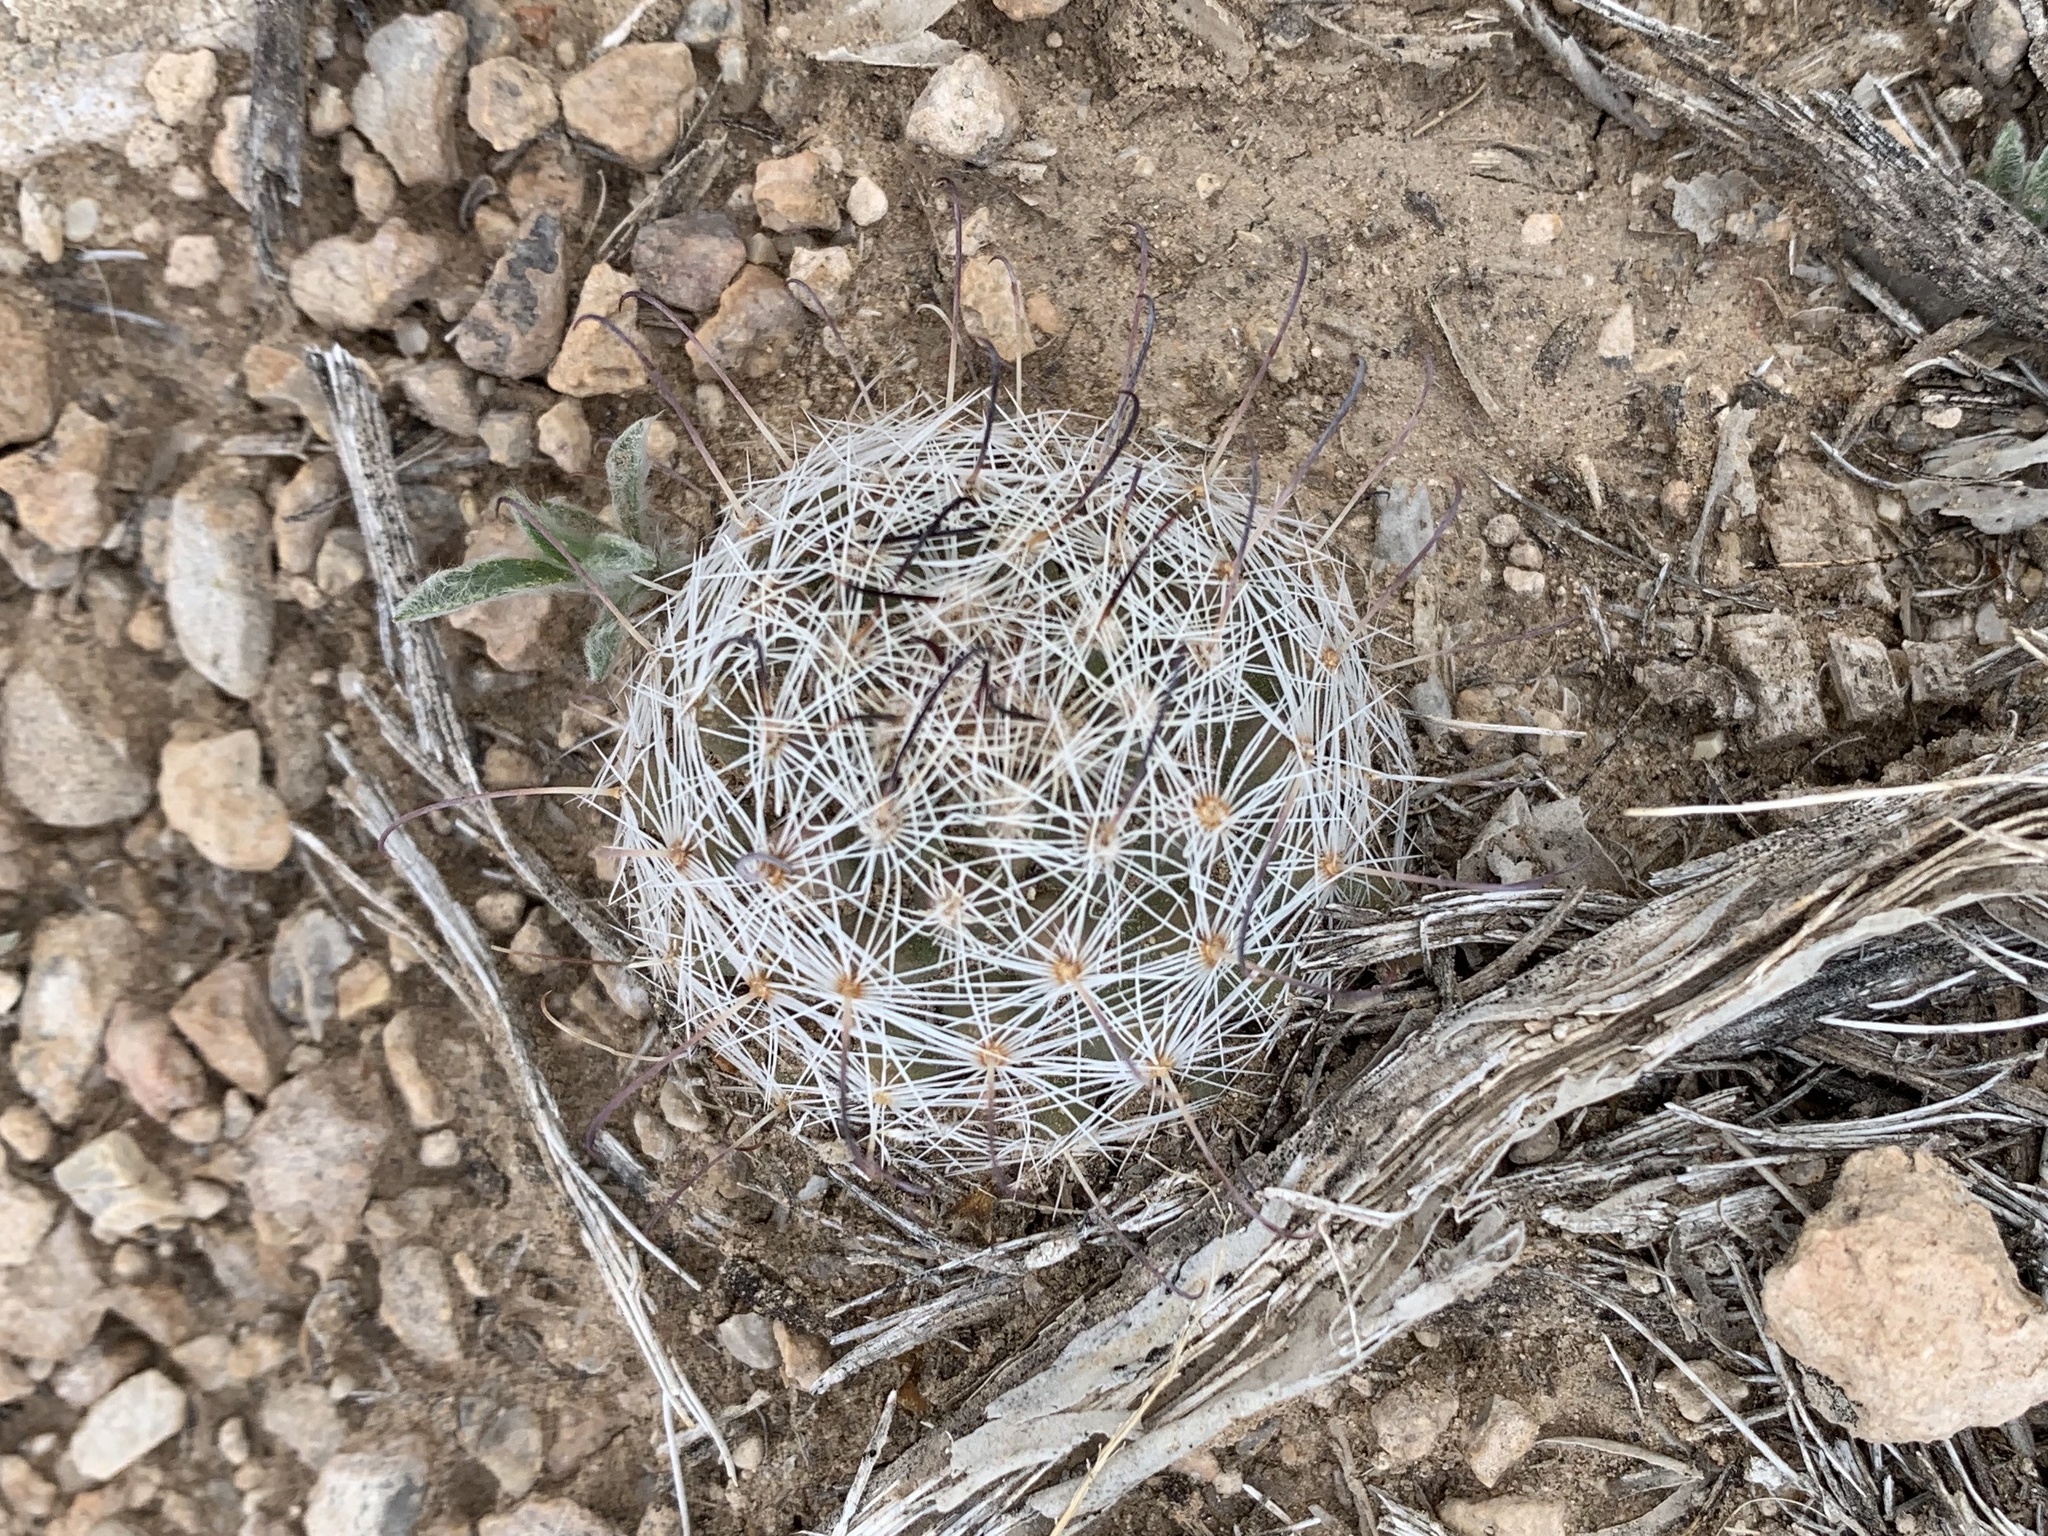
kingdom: Plantae
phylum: Tracheophyta
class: Magnoliopsida
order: Caryophyllales
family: Cactaceae
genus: Cochemiea
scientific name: Cochemiea grahamii
